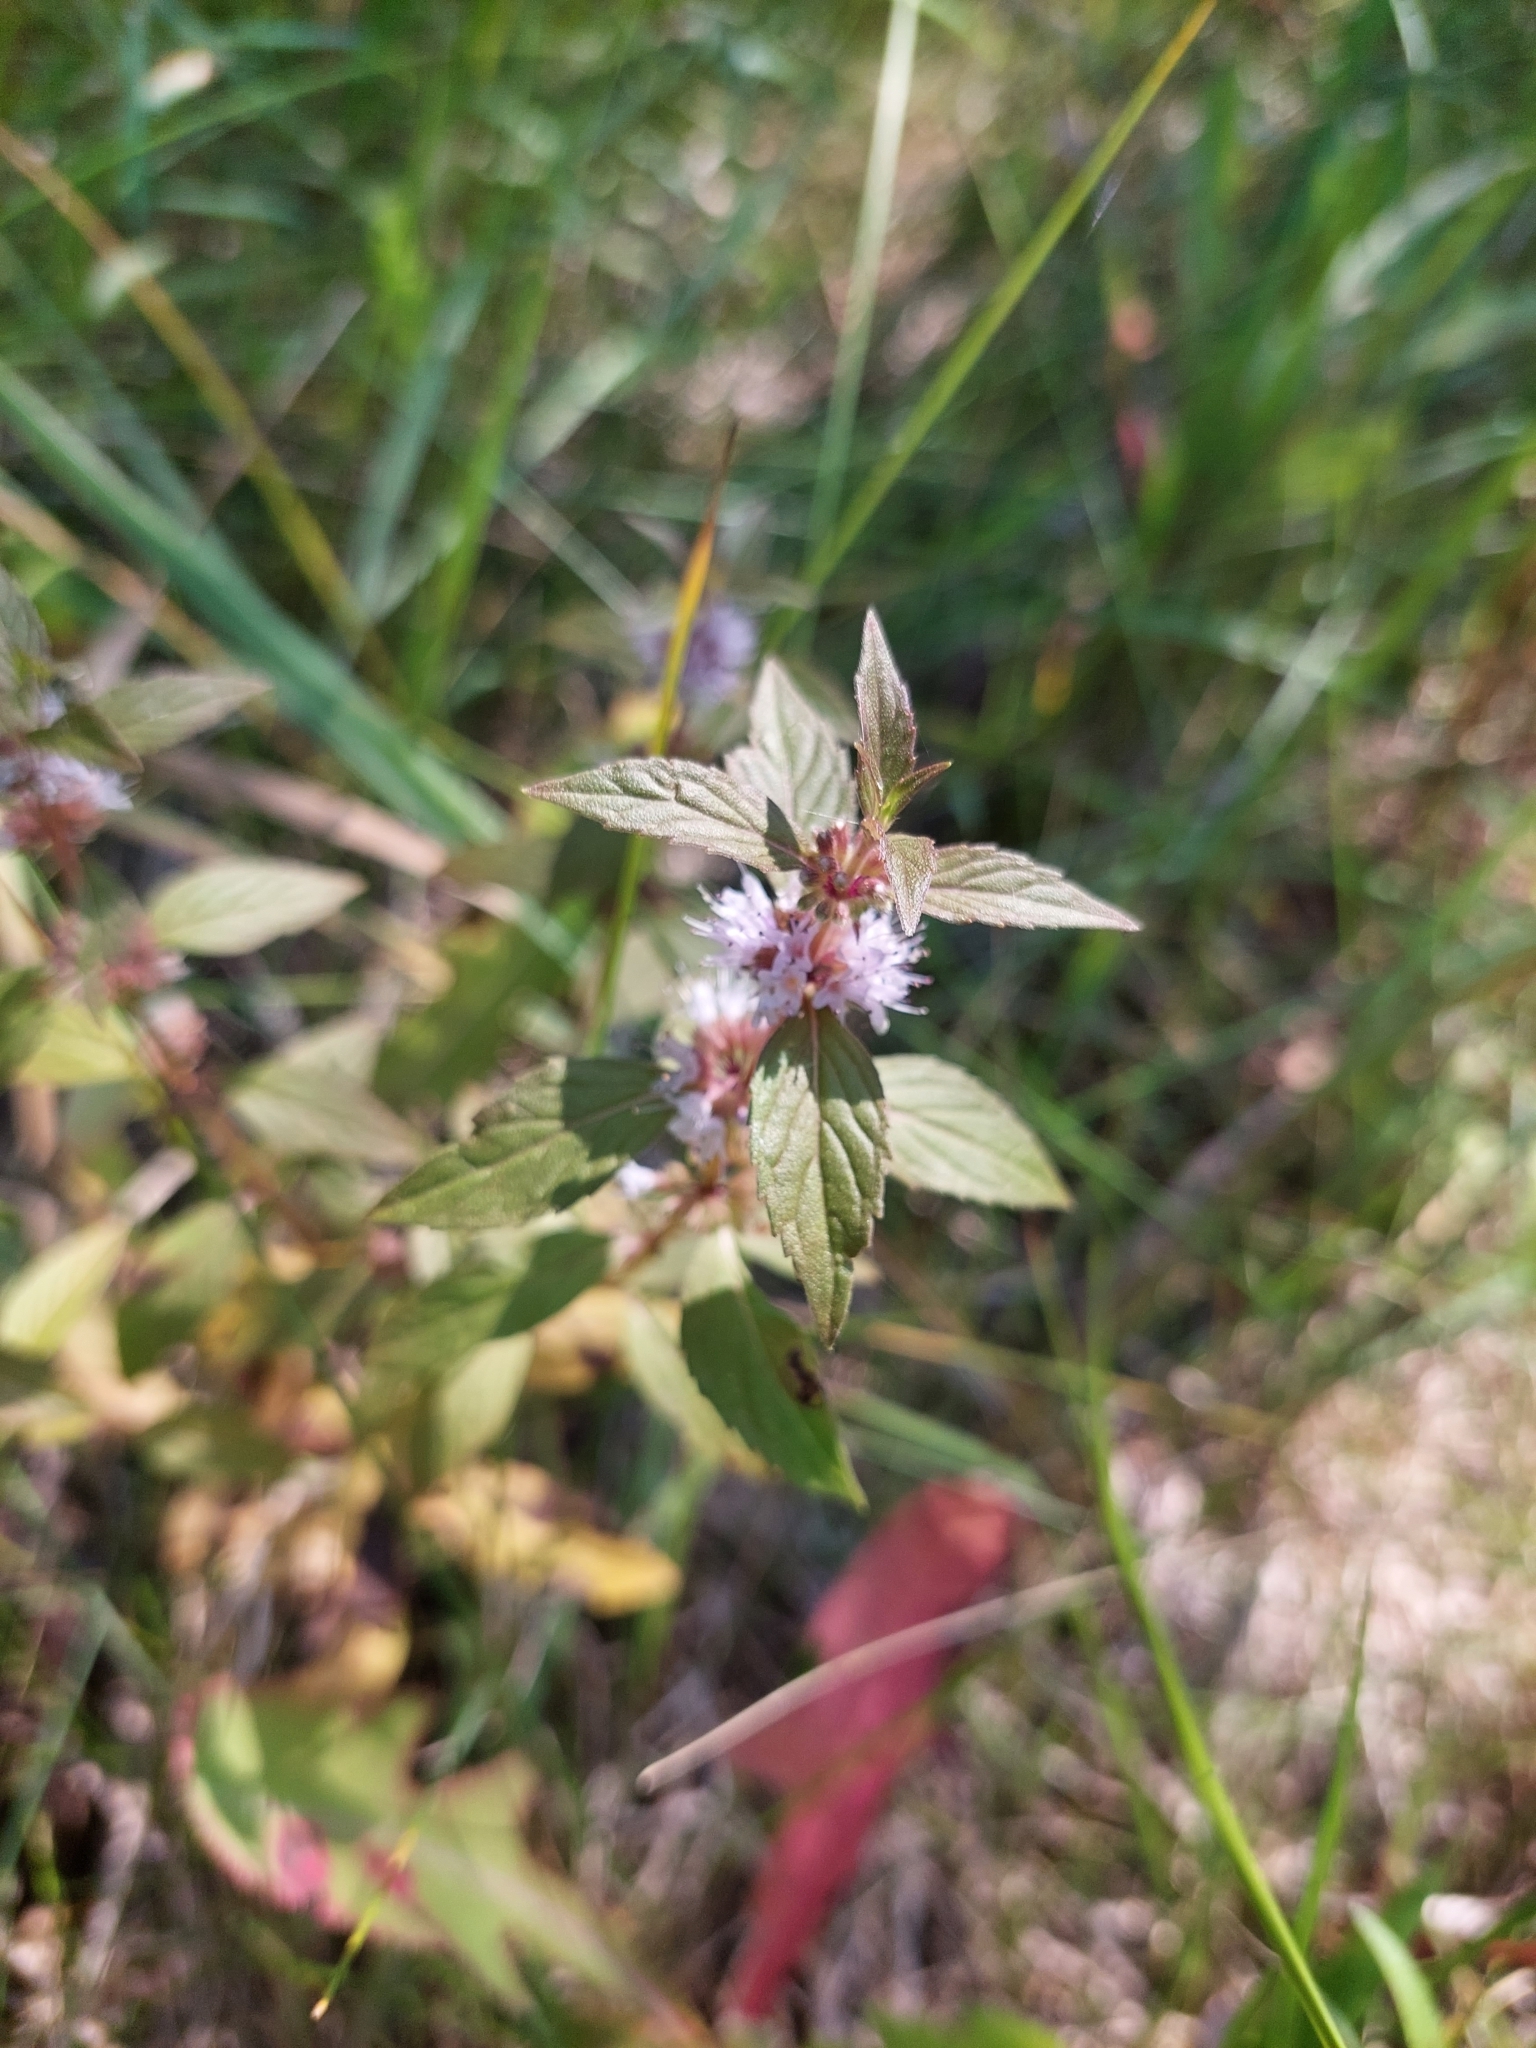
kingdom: Plantae
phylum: Tracheophyta
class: Magnoliopsida
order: Lamiales
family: Lamiaceae
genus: Mentha
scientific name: Mentha canadensis
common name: American corn mint
